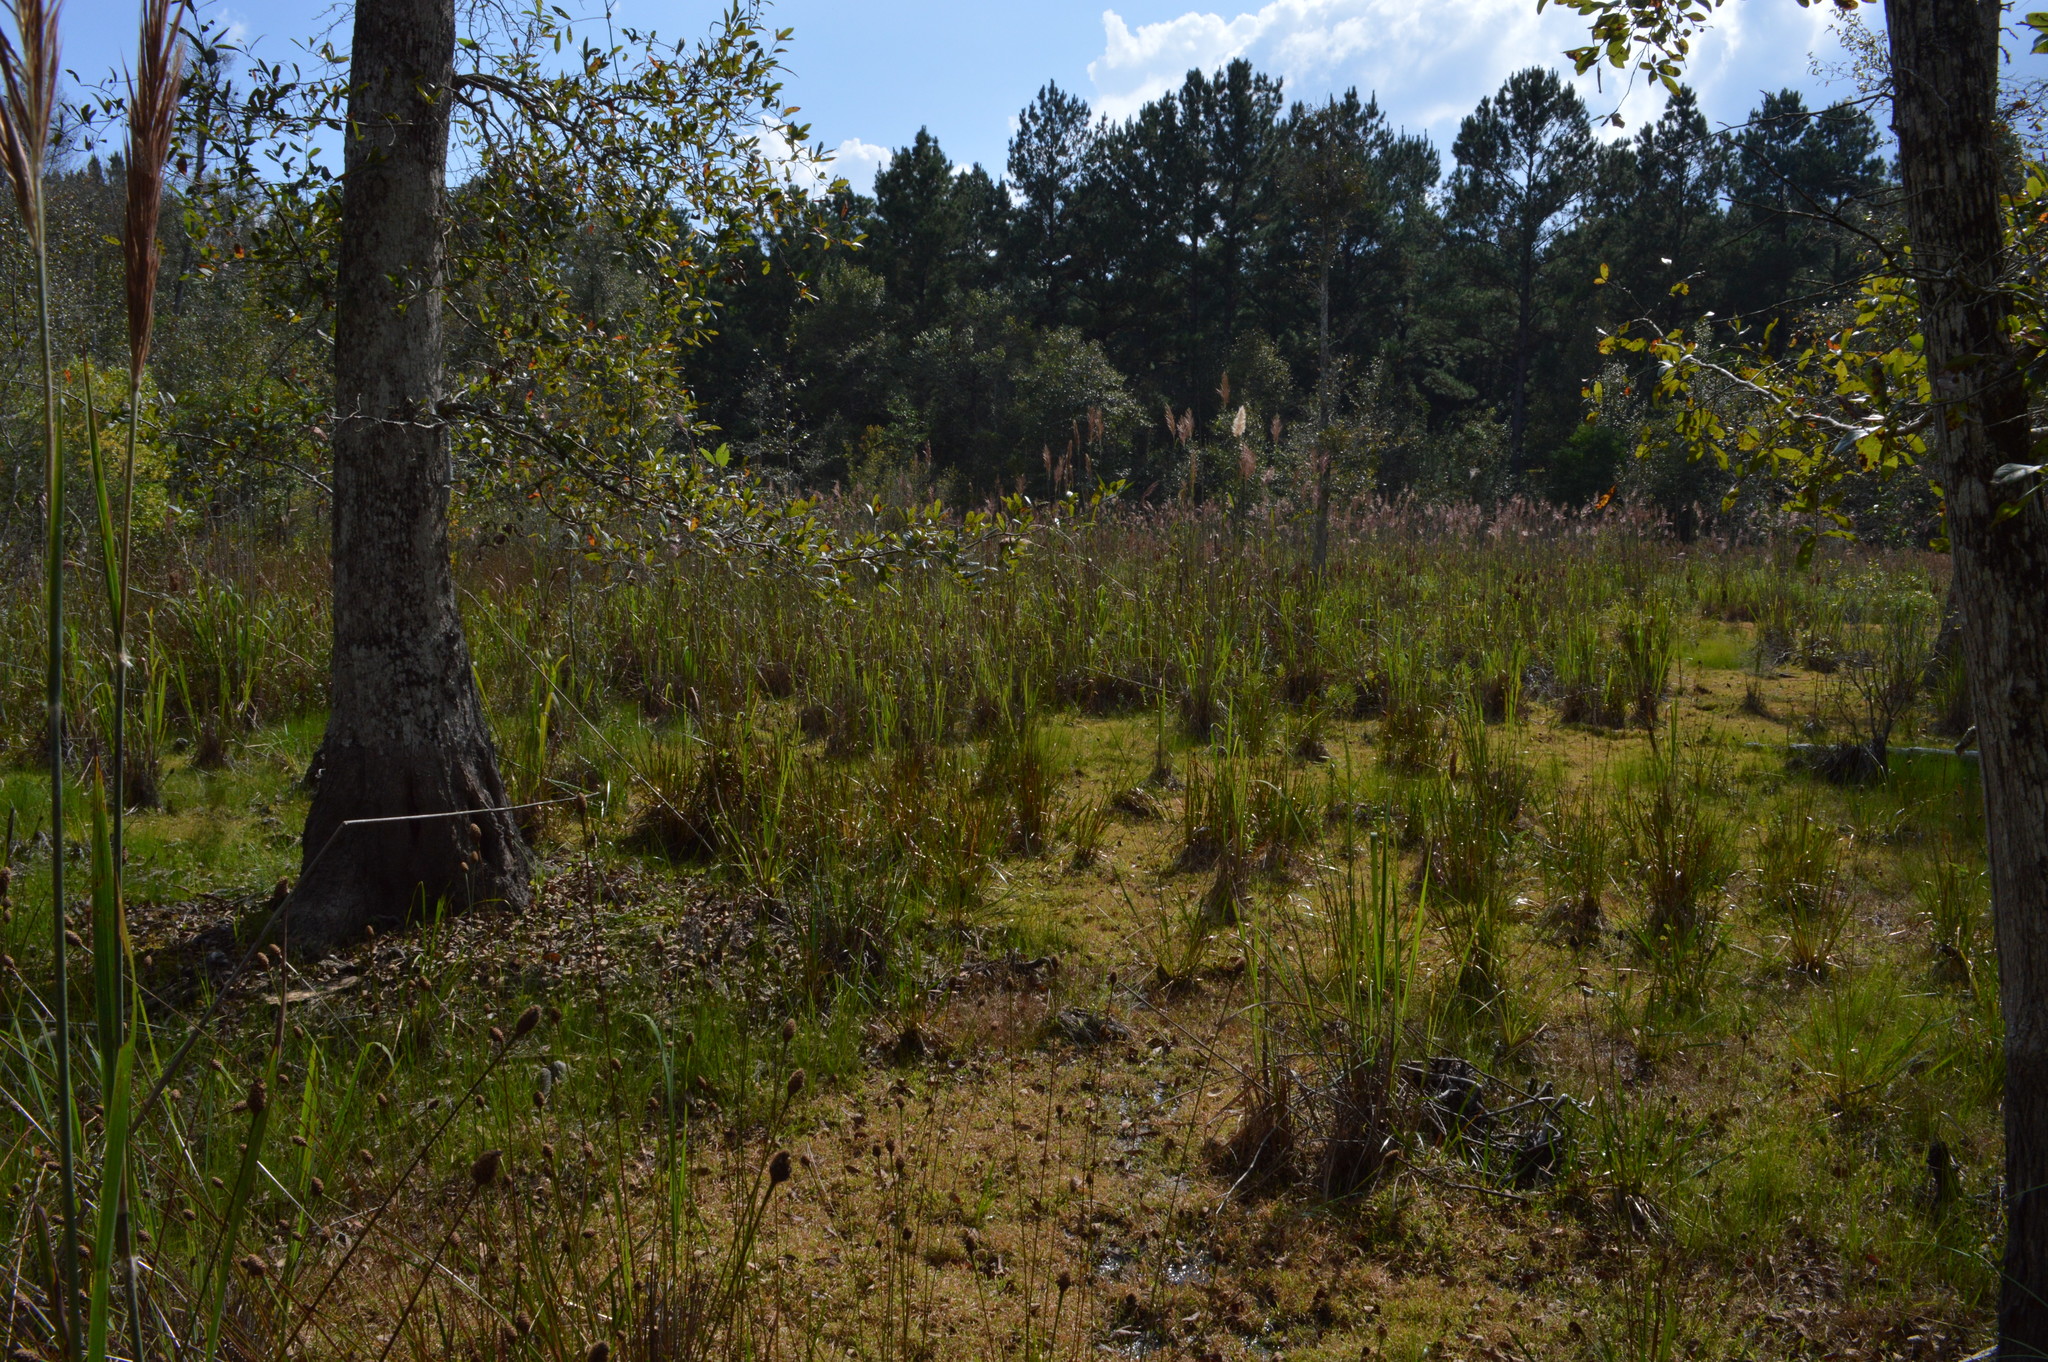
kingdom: Plantae
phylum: Tracheophyta
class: Magnoliopsida
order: Gentianales
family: Rubiaceae
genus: Edrastima
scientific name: Edrastima uniflora
